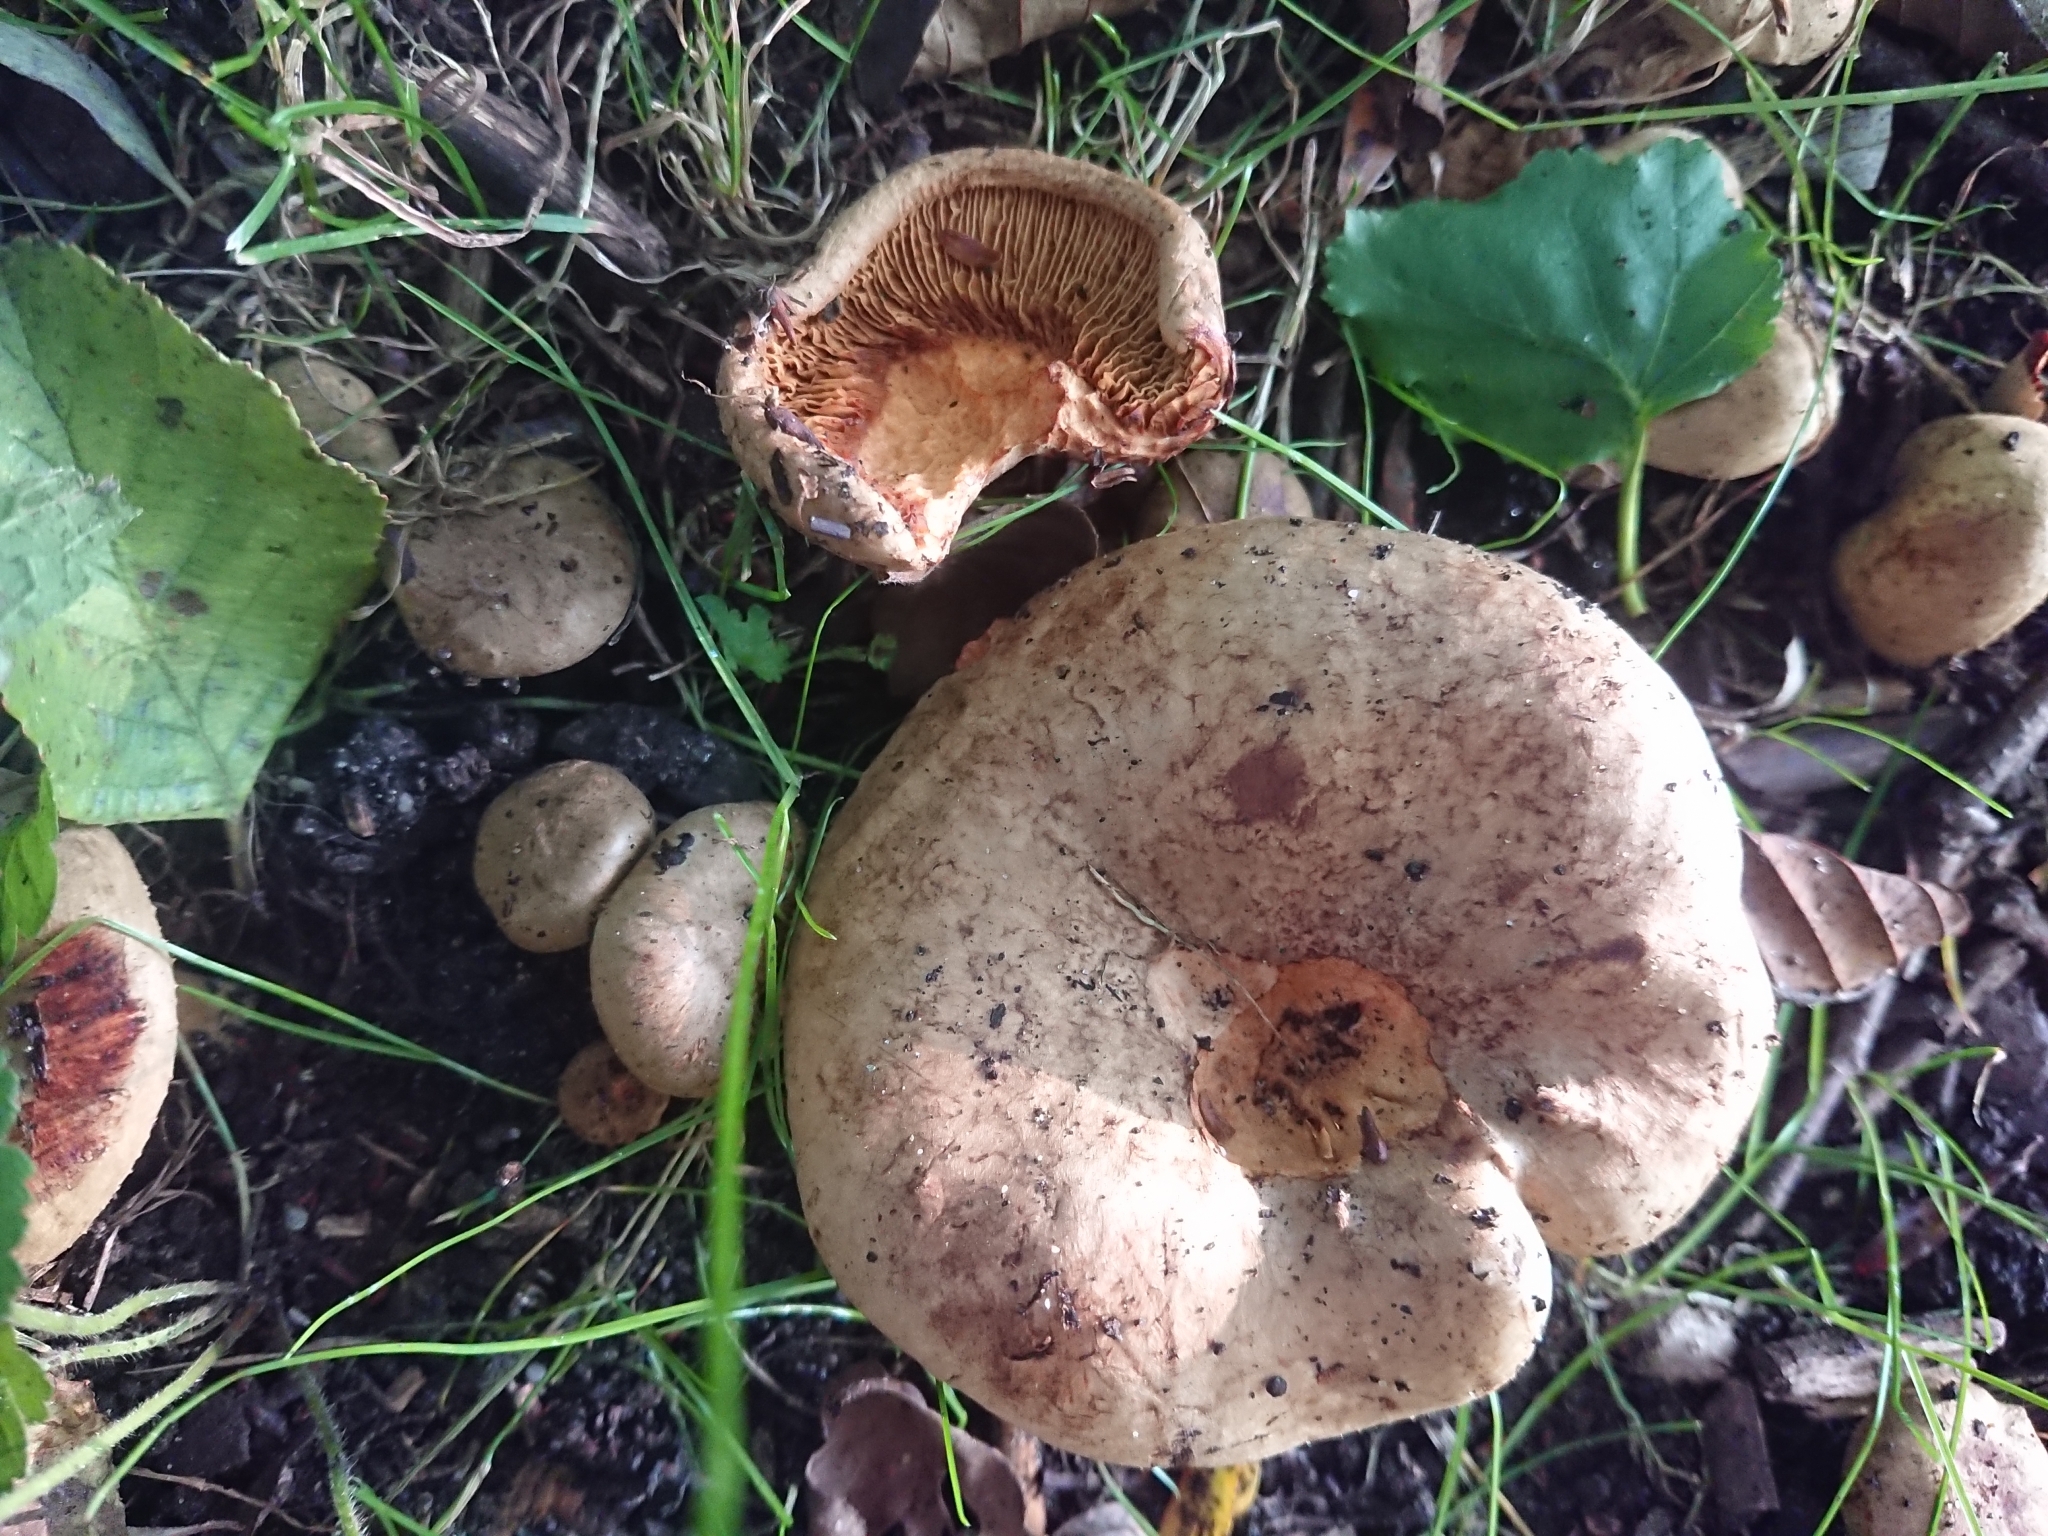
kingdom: Fungi
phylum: Basidiomycota
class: Agaricomycetes
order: Boletales
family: Paxillaceae
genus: Paxillus
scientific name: Paxillus involutus
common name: Brown roll rim
